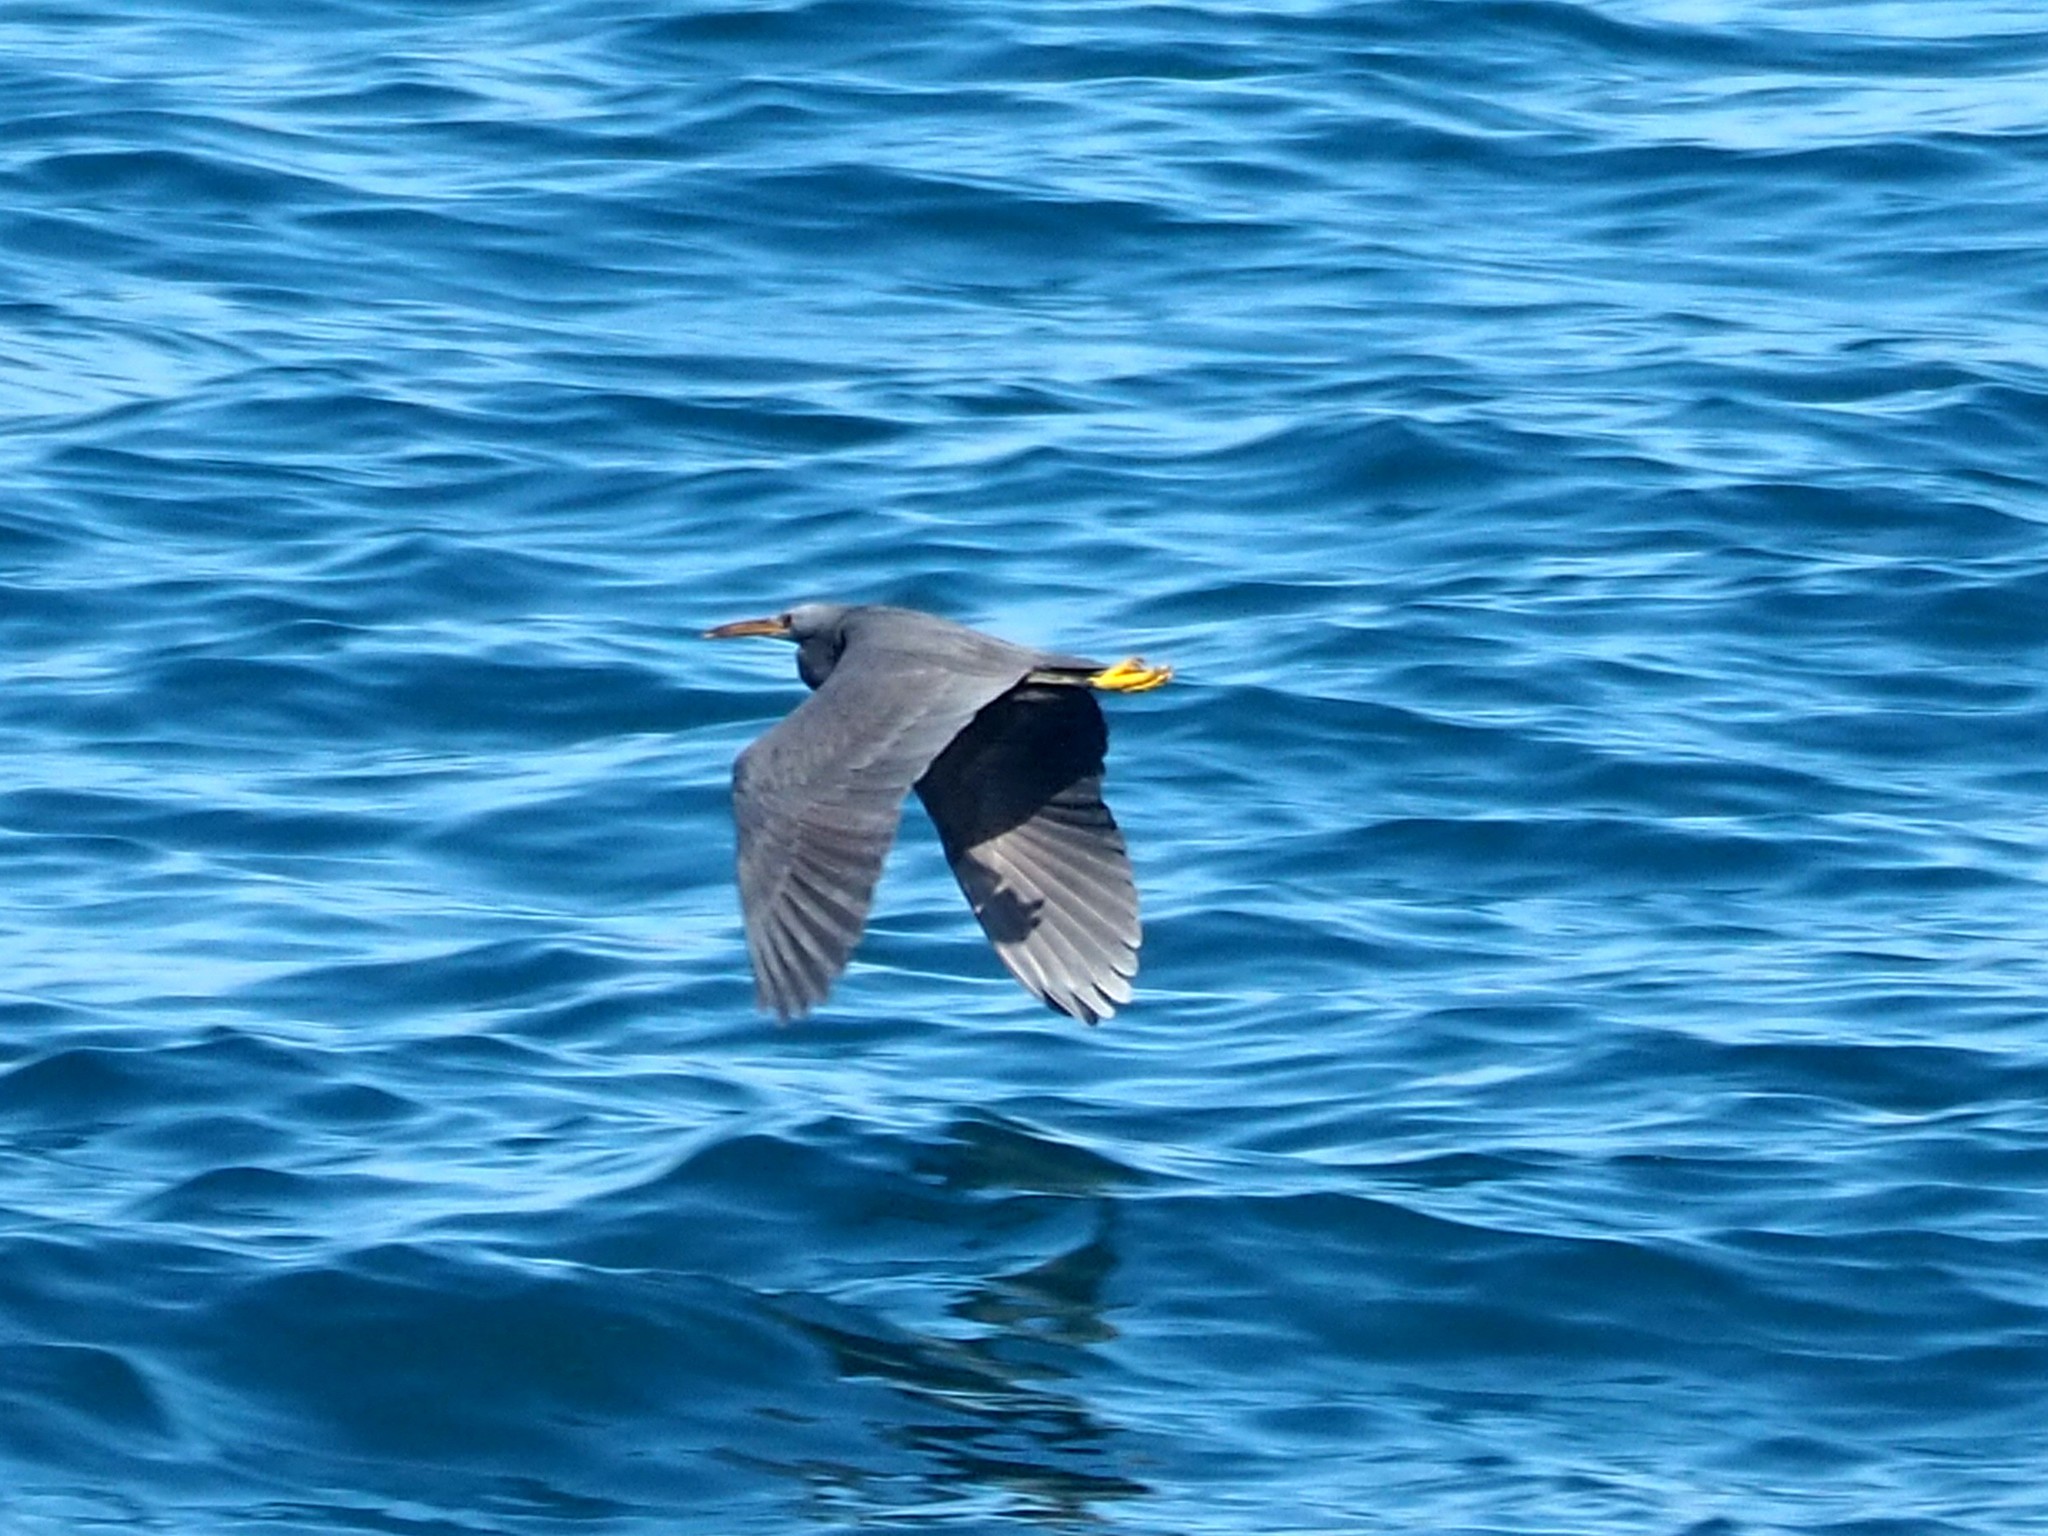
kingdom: Animalia
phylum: Chordata
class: Aves
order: Pelecaniformes
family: Ardeidae
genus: Egretta
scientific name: Egretta sacra
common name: Pacific reef heron
